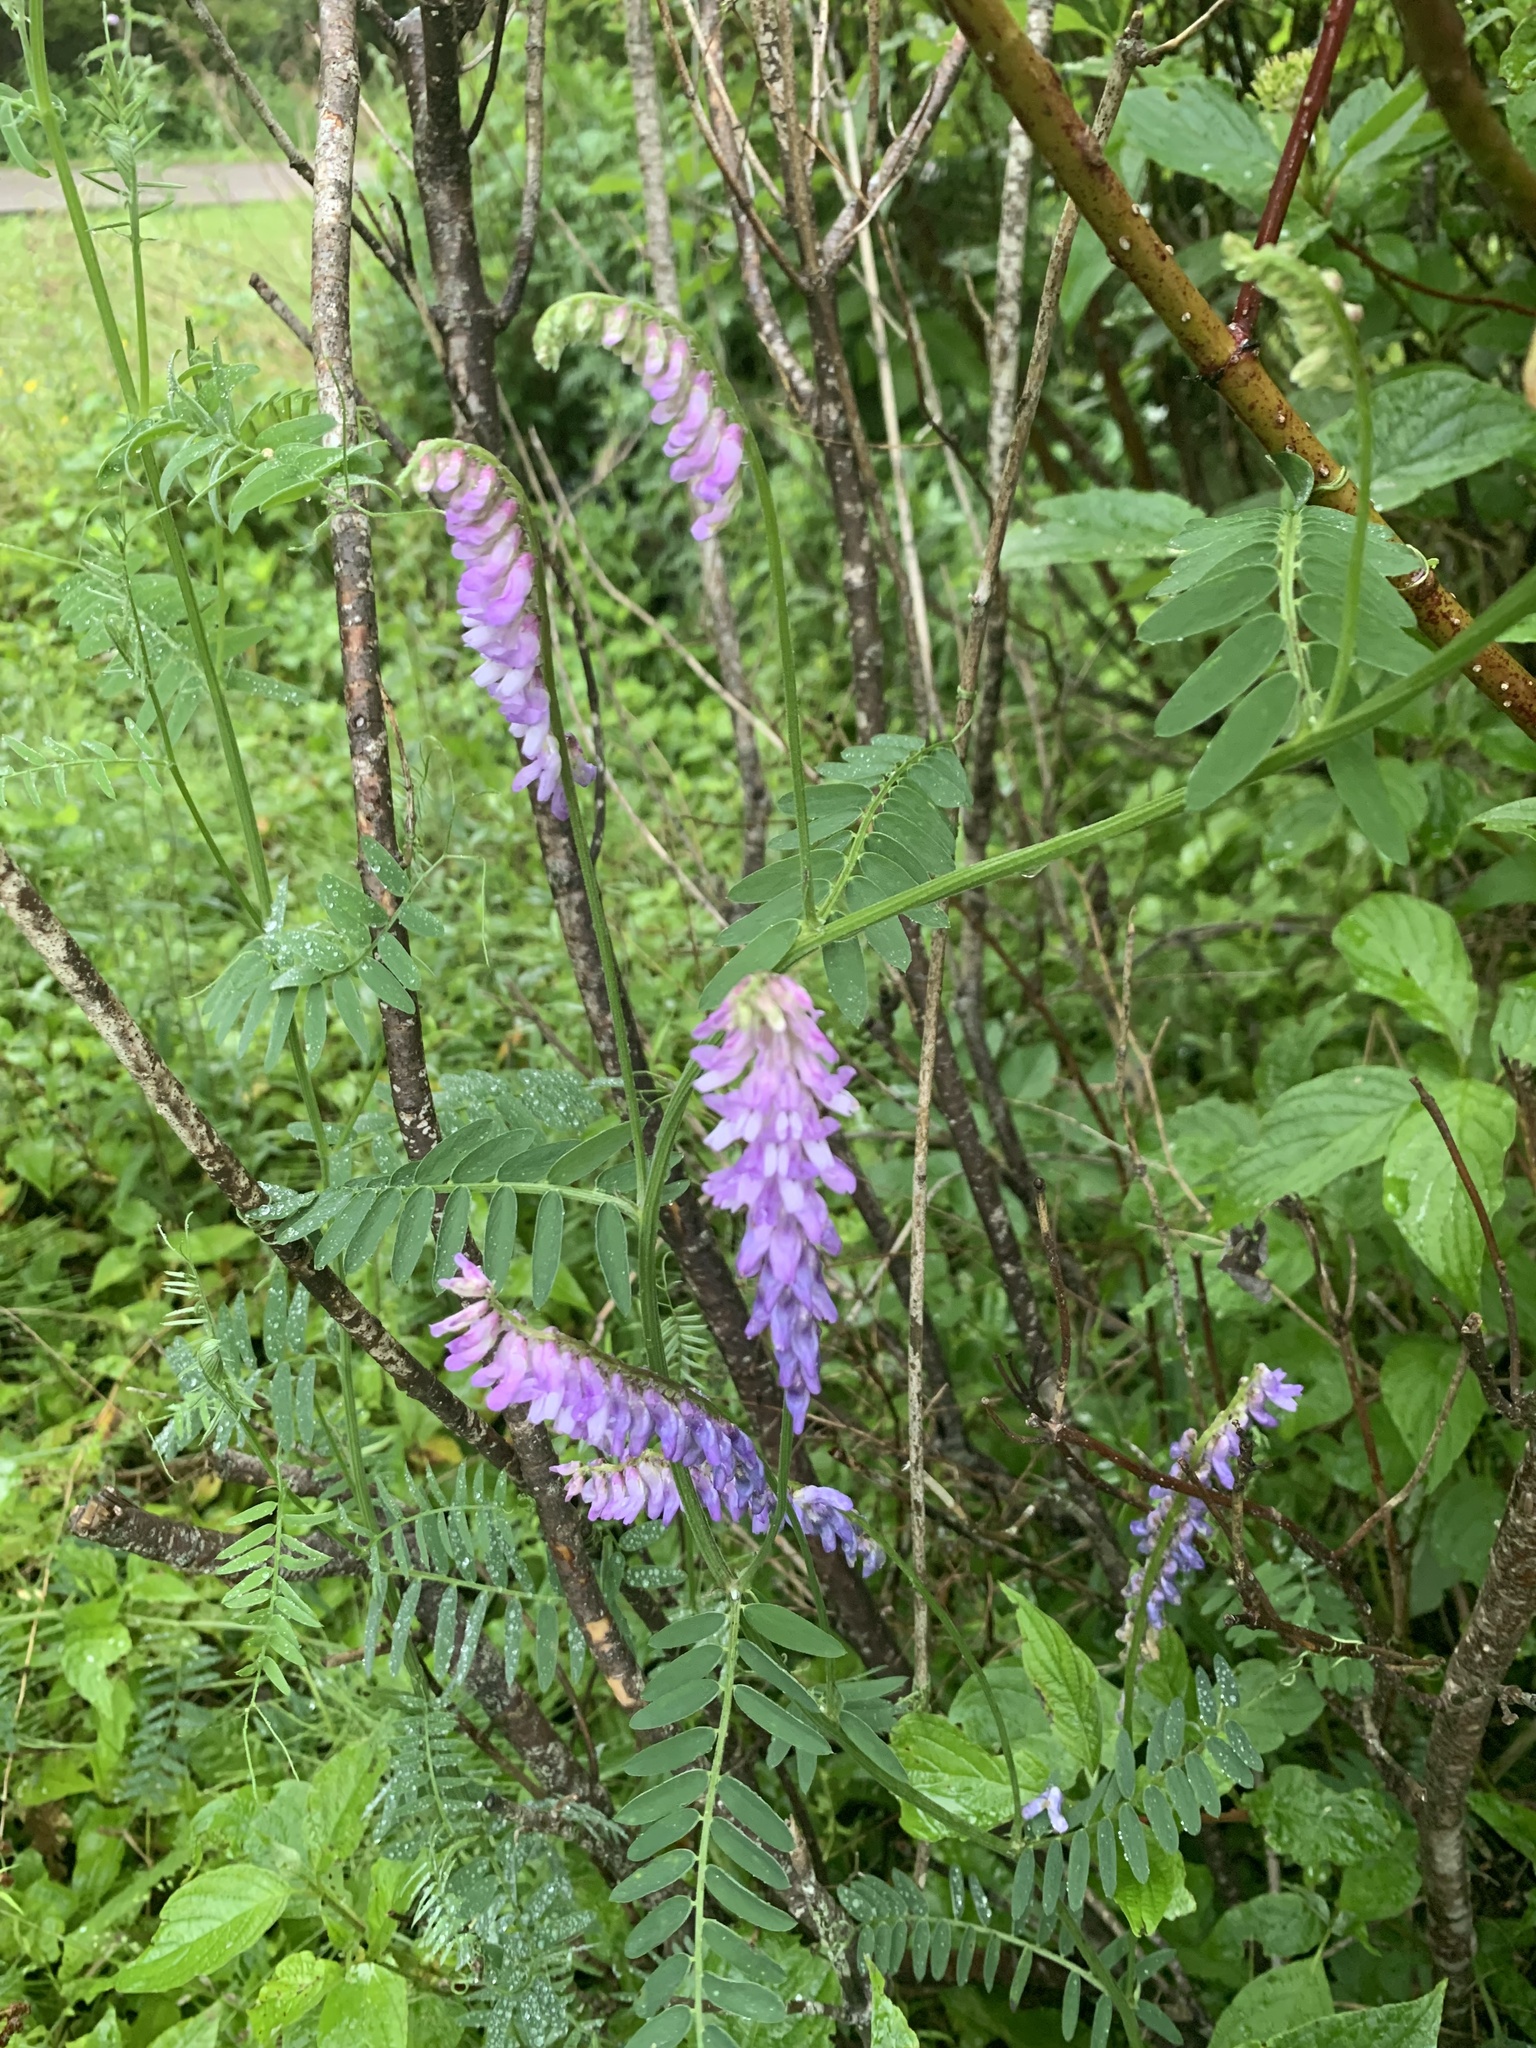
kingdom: Plantae
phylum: Tracheophyta
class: Magnoliopsida
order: Fabales
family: Fabaceae
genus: Vicia
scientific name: Vicia cracca
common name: Bird vetch
